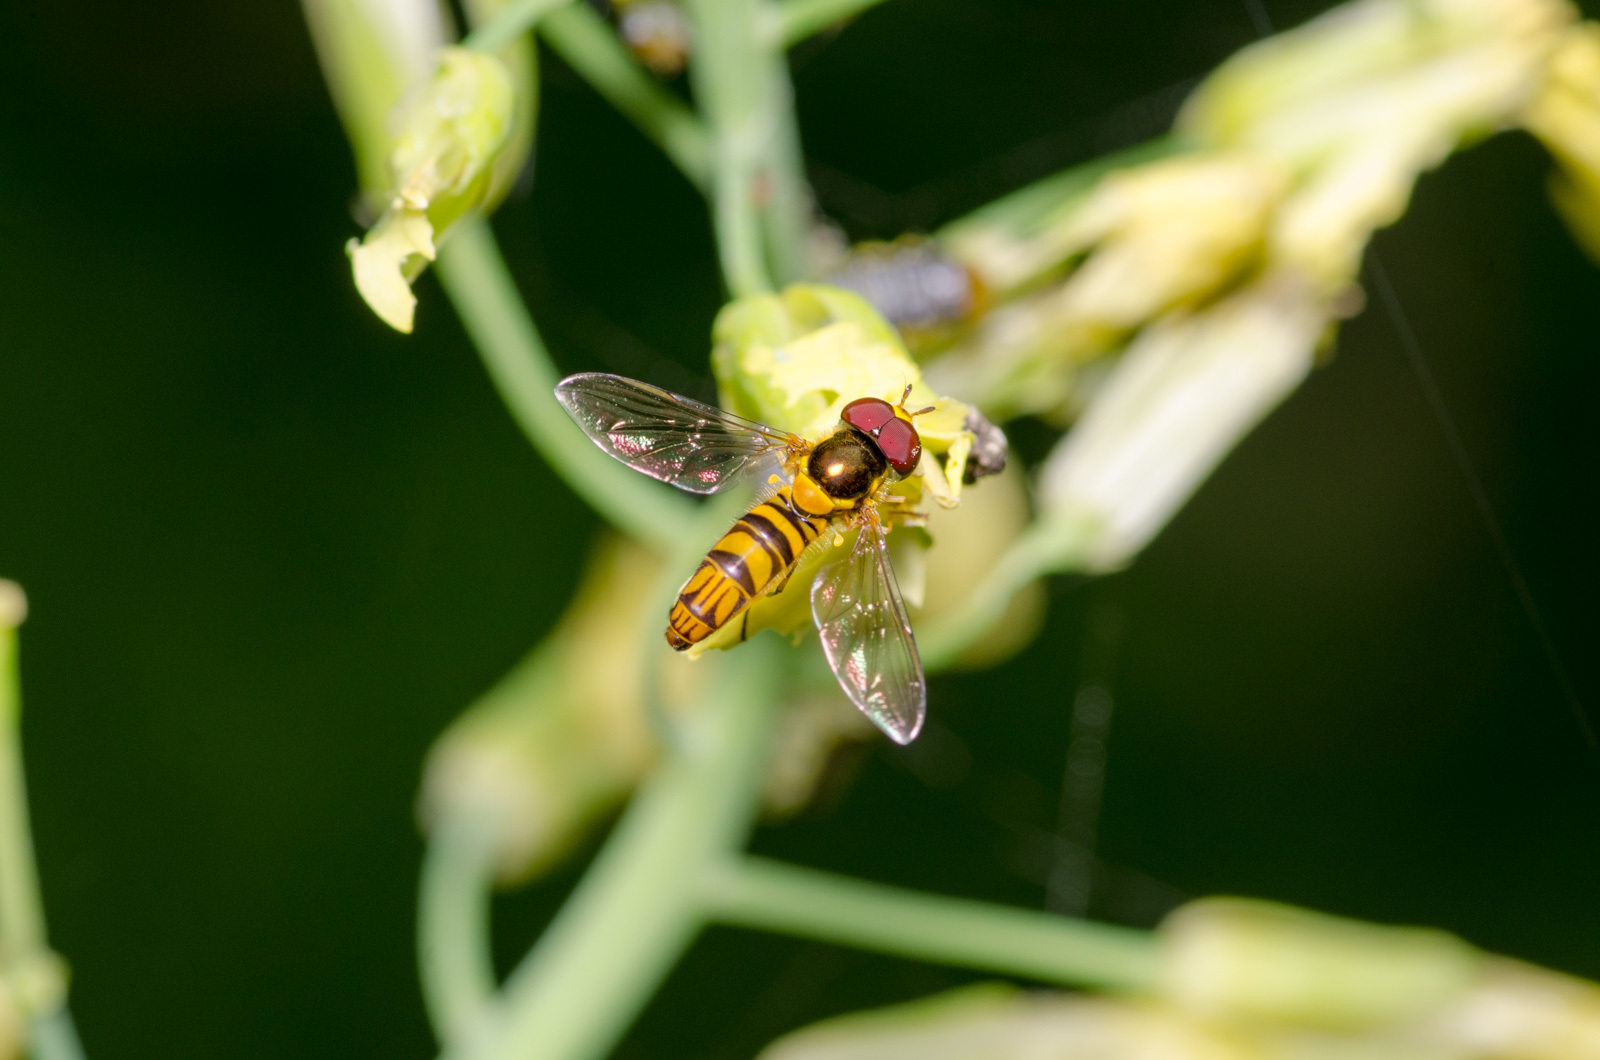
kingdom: Animalia
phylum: Arthropoda
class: Insecta
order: Diptera
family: Syrphidae
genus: Allograpta
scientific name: Allograpta obliqua
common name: Common oblique syrphid
